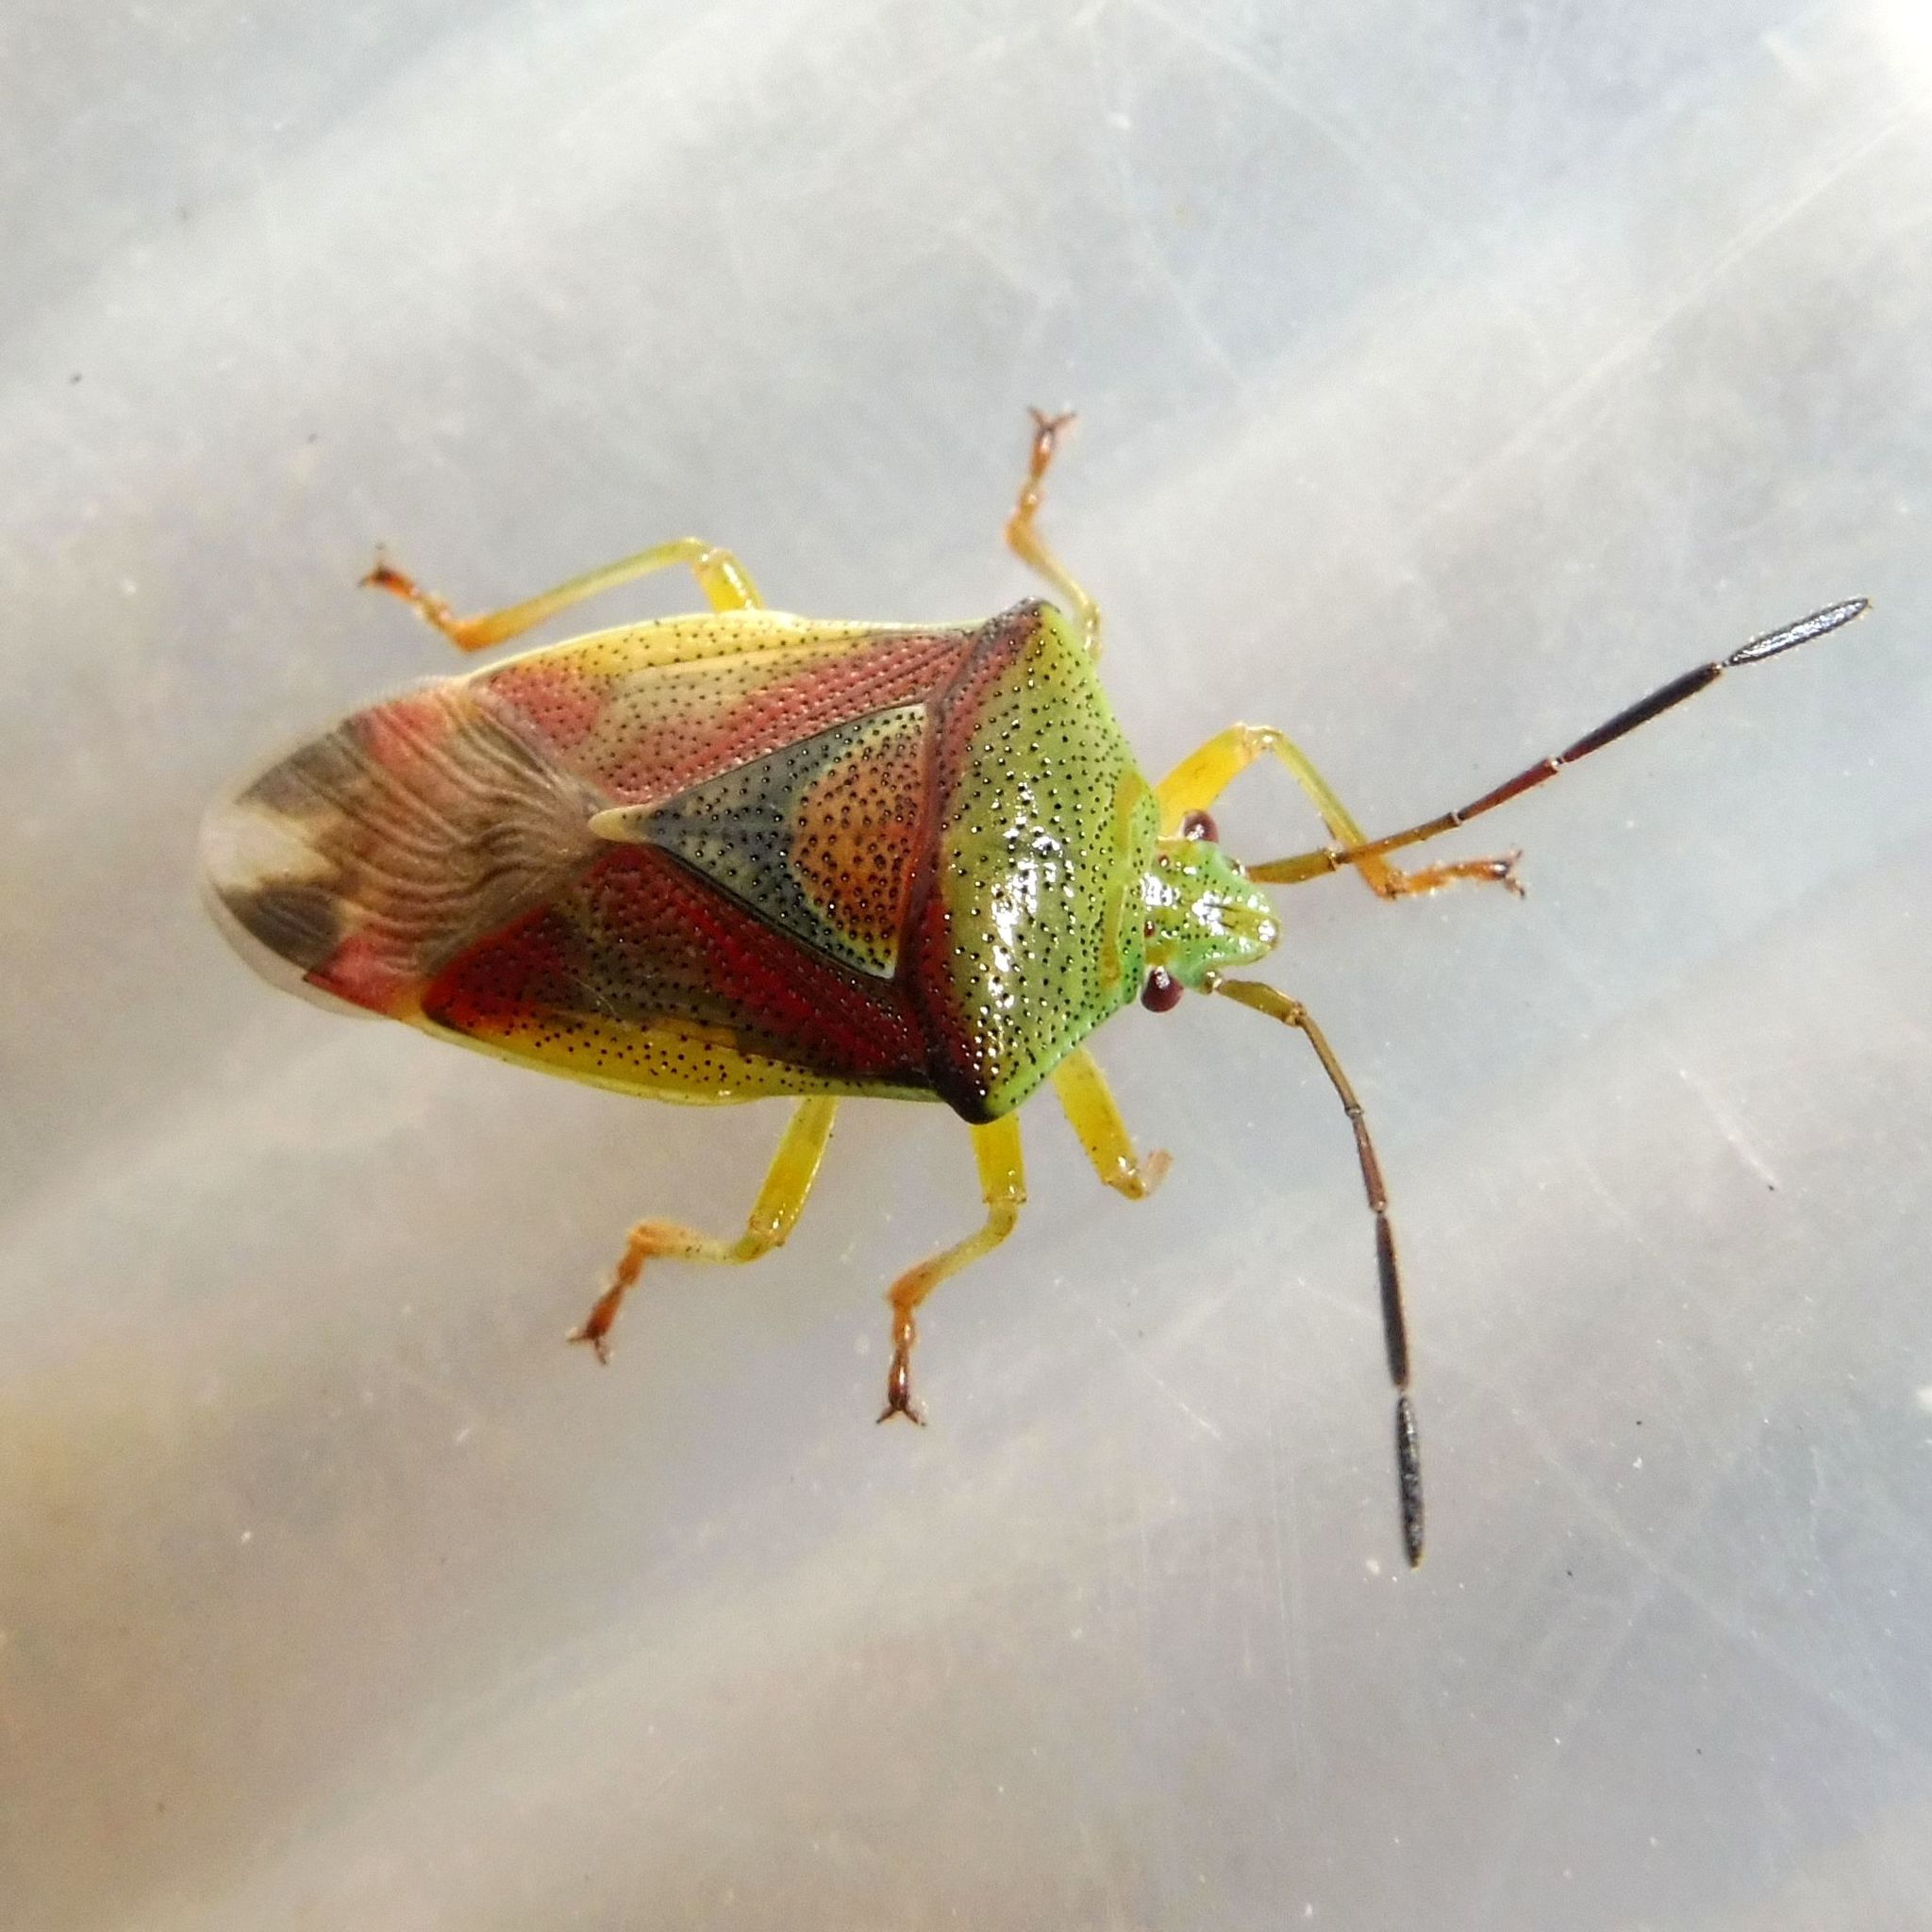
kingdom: Animalia
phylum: Arthropoda
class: Insecta
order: Hemiptera
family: Acanthosomatidae
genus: Elasmostethus
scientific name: Elasmostethus interstinctus
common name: Birch shieldbug
